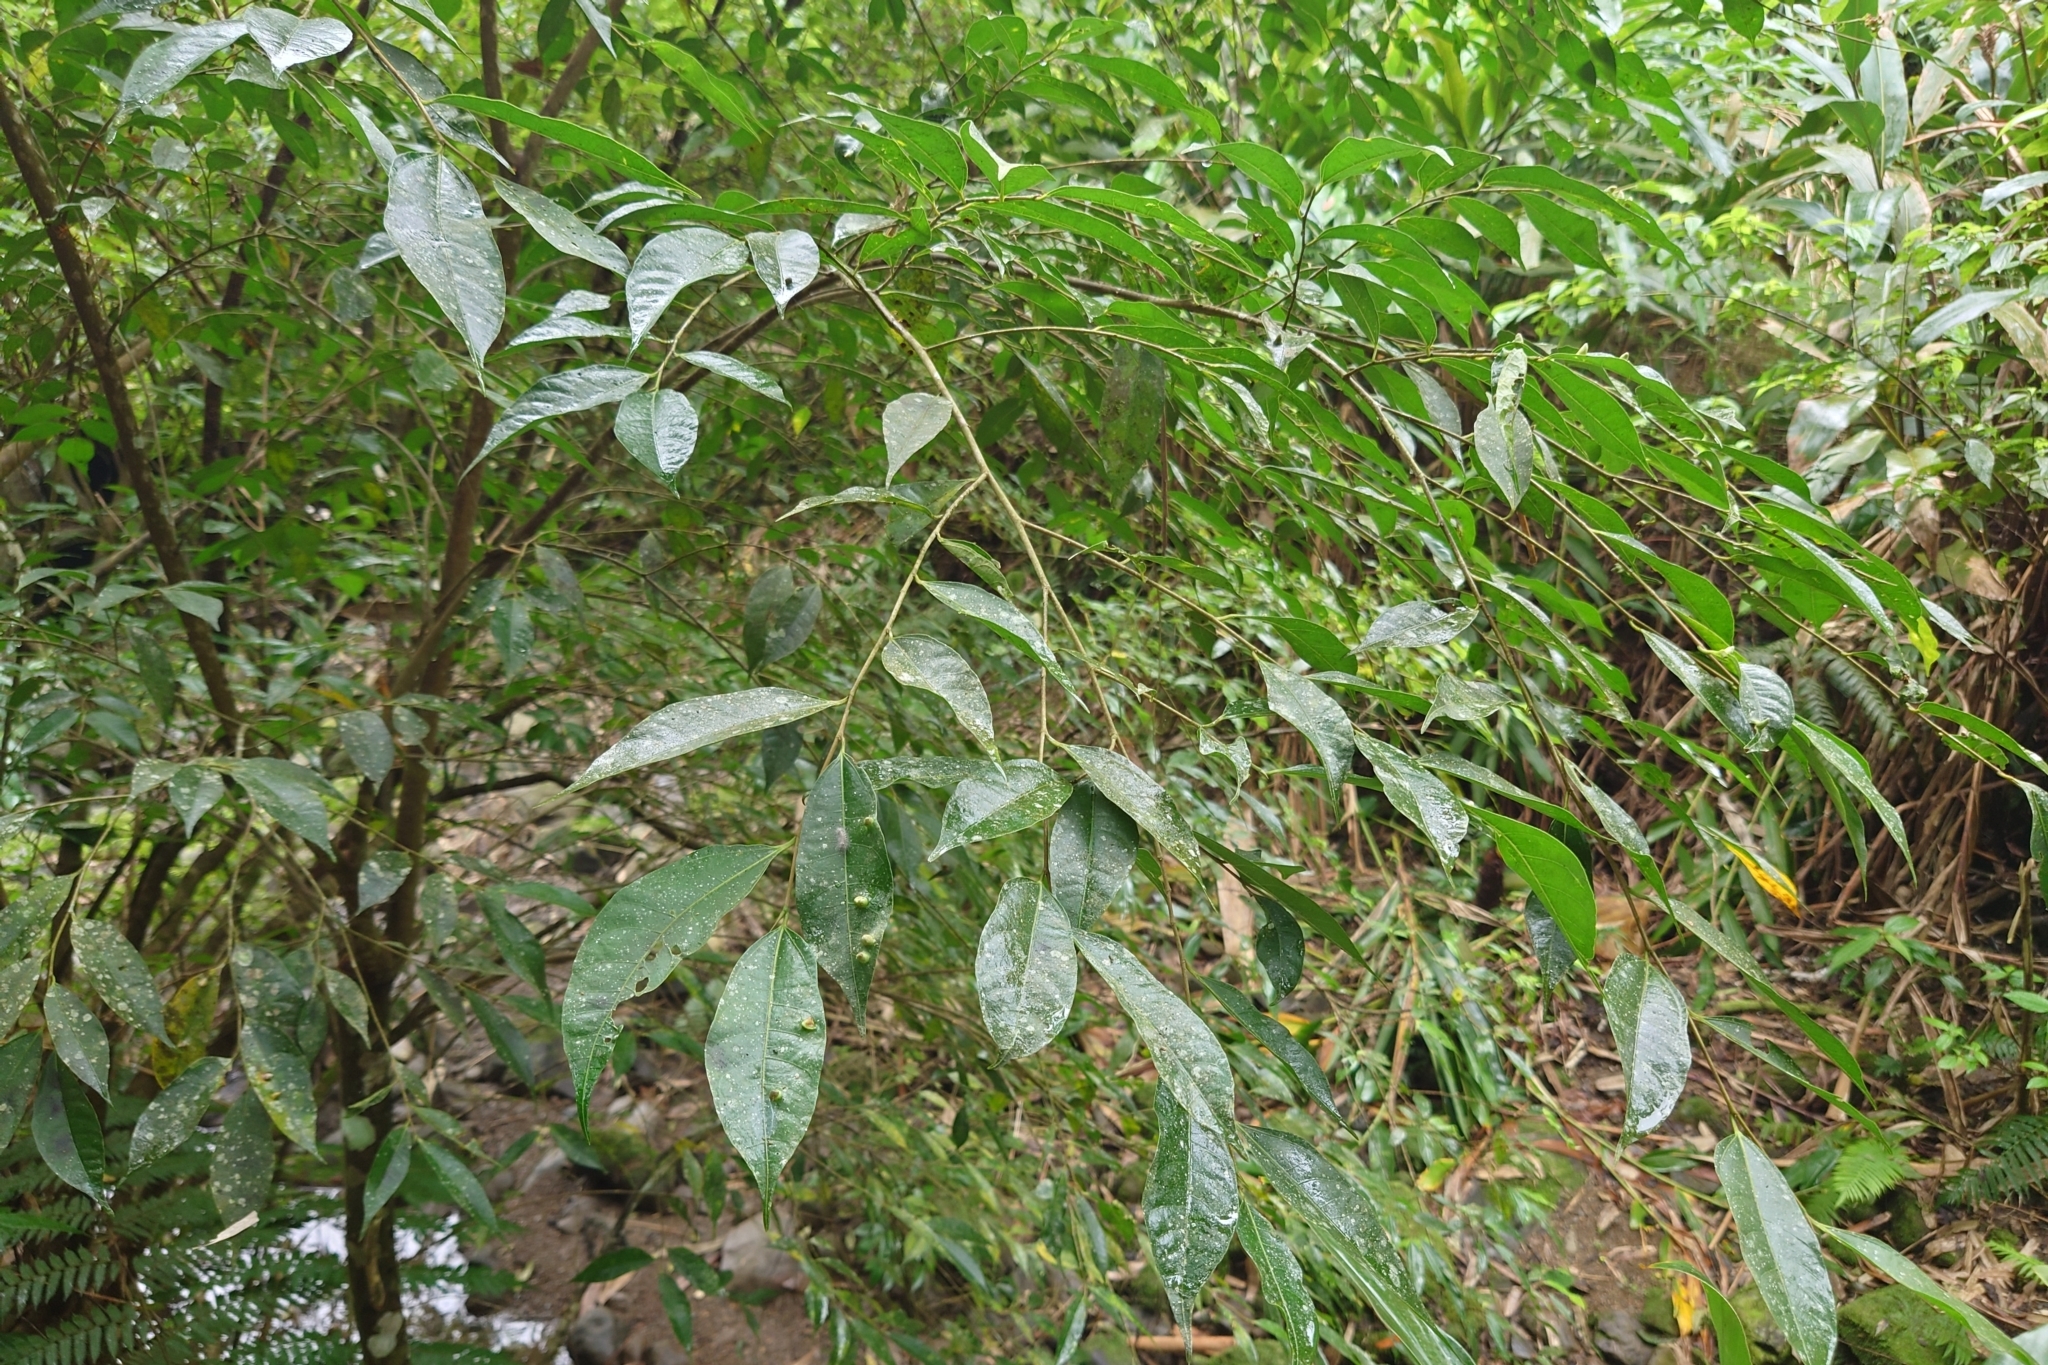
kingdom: Plantae
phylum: Tracheophyta
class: Magnoliopsida
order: Rosales
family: Moraceae
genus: Ficus
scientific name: Ficus ampelos
